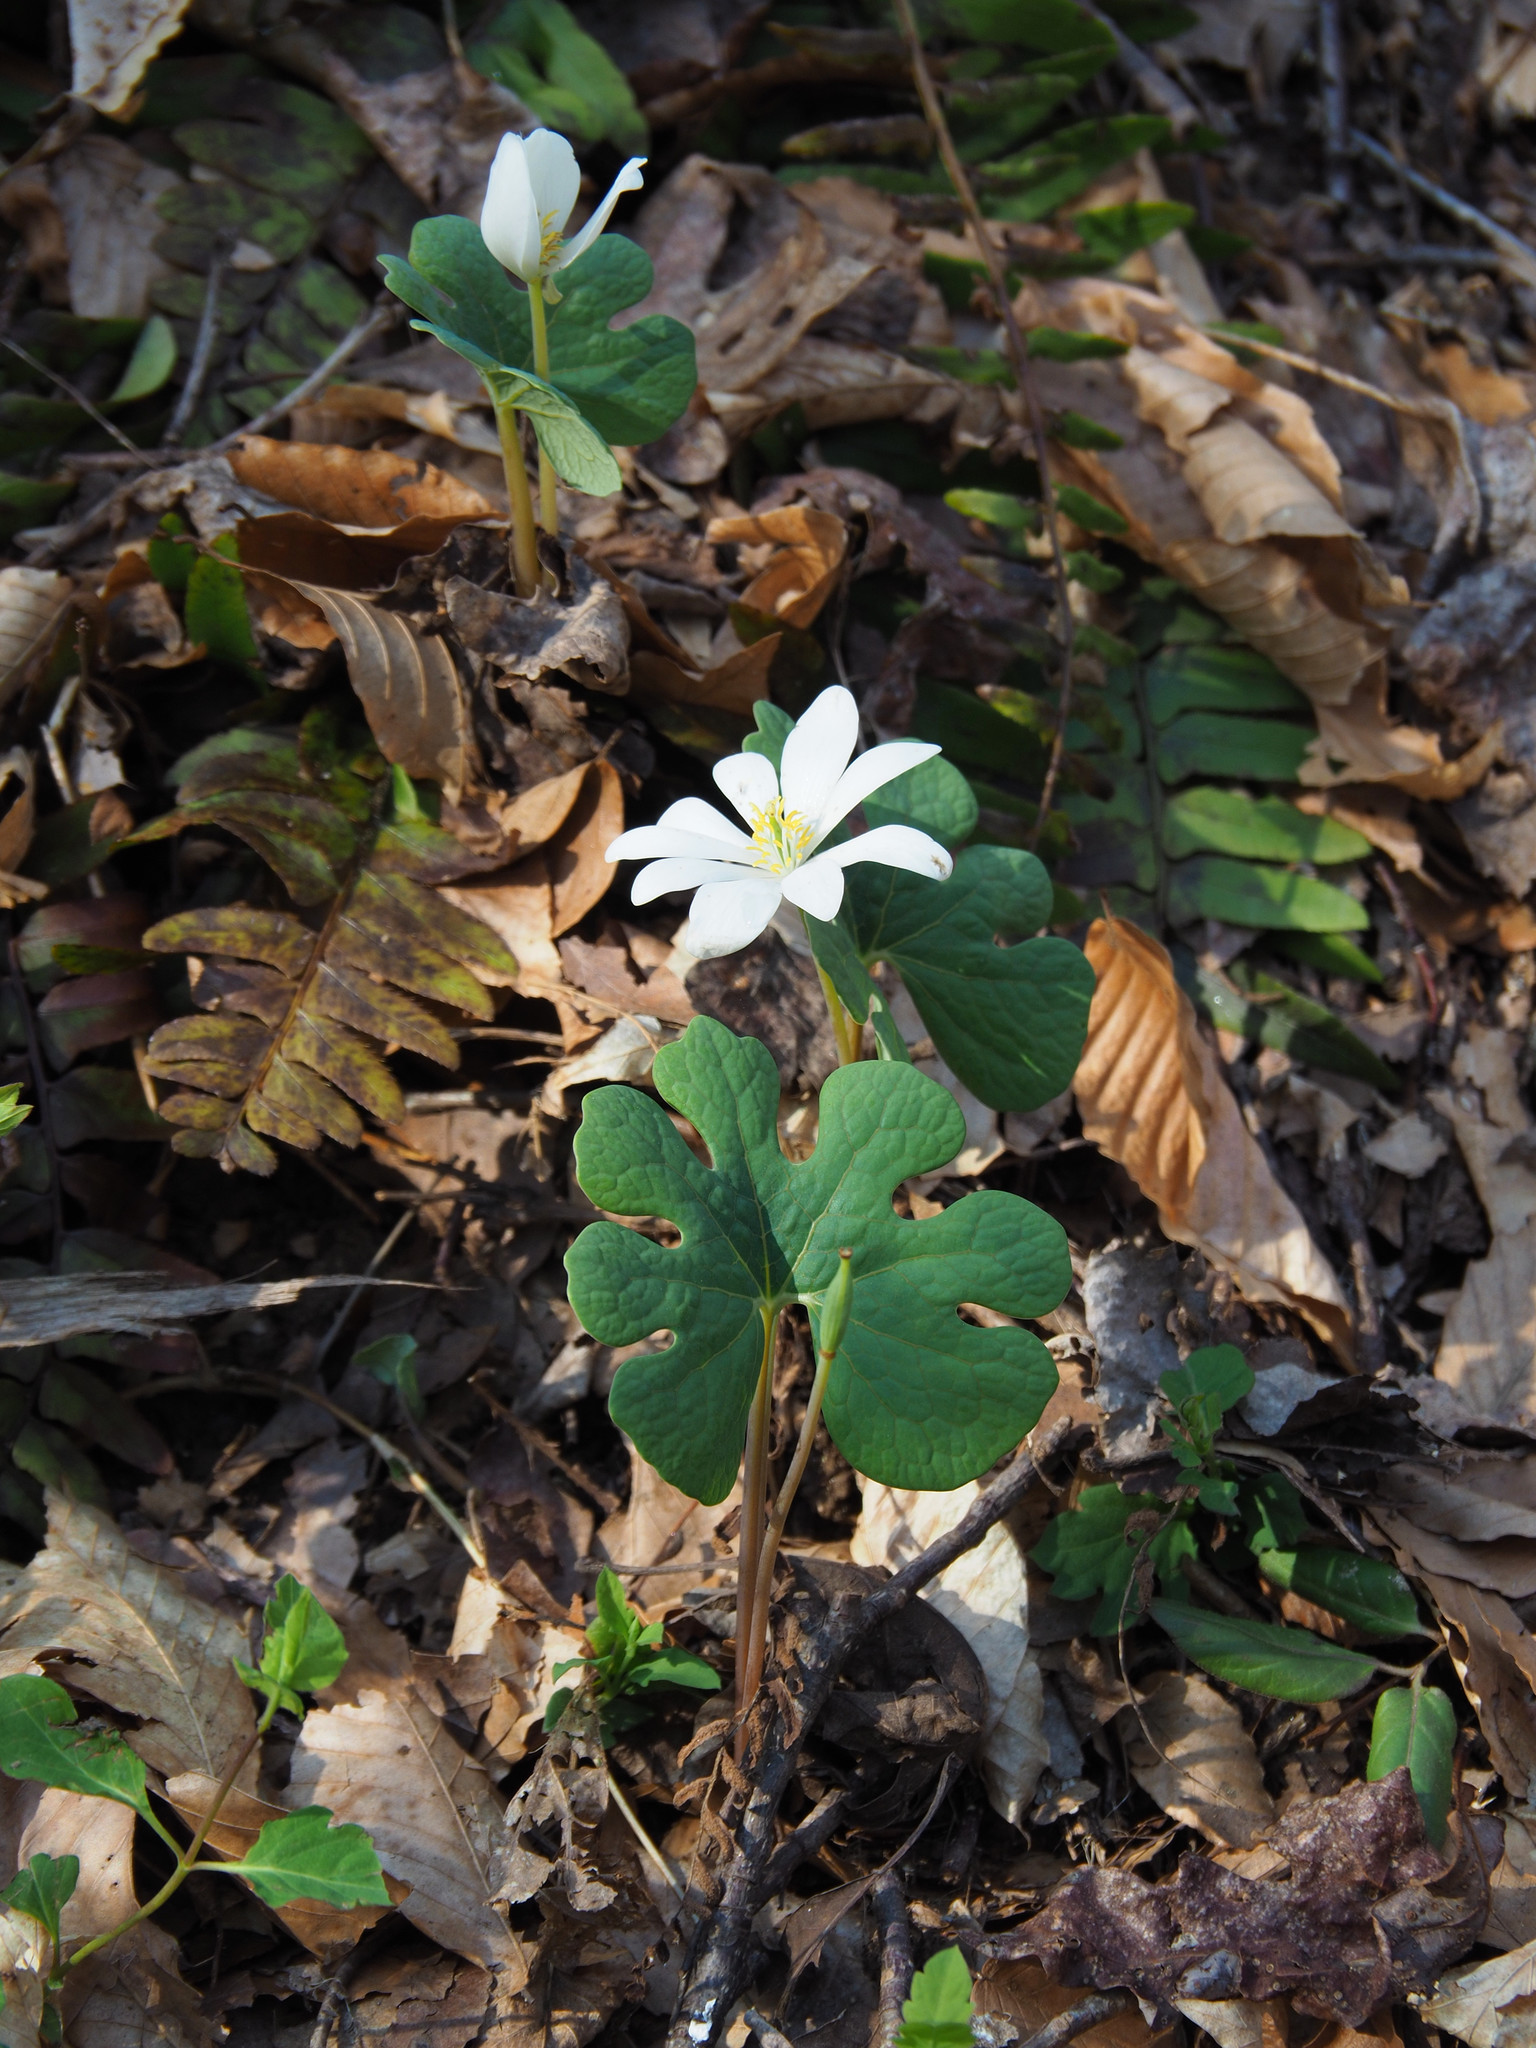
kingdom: Plantae
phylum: Tracheophyta
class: Magnoliopsida
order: Ranunculales
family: Papaveraceae
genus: Sanguinaria
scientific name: Sanguinaria canadensis
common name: Bloodroot
